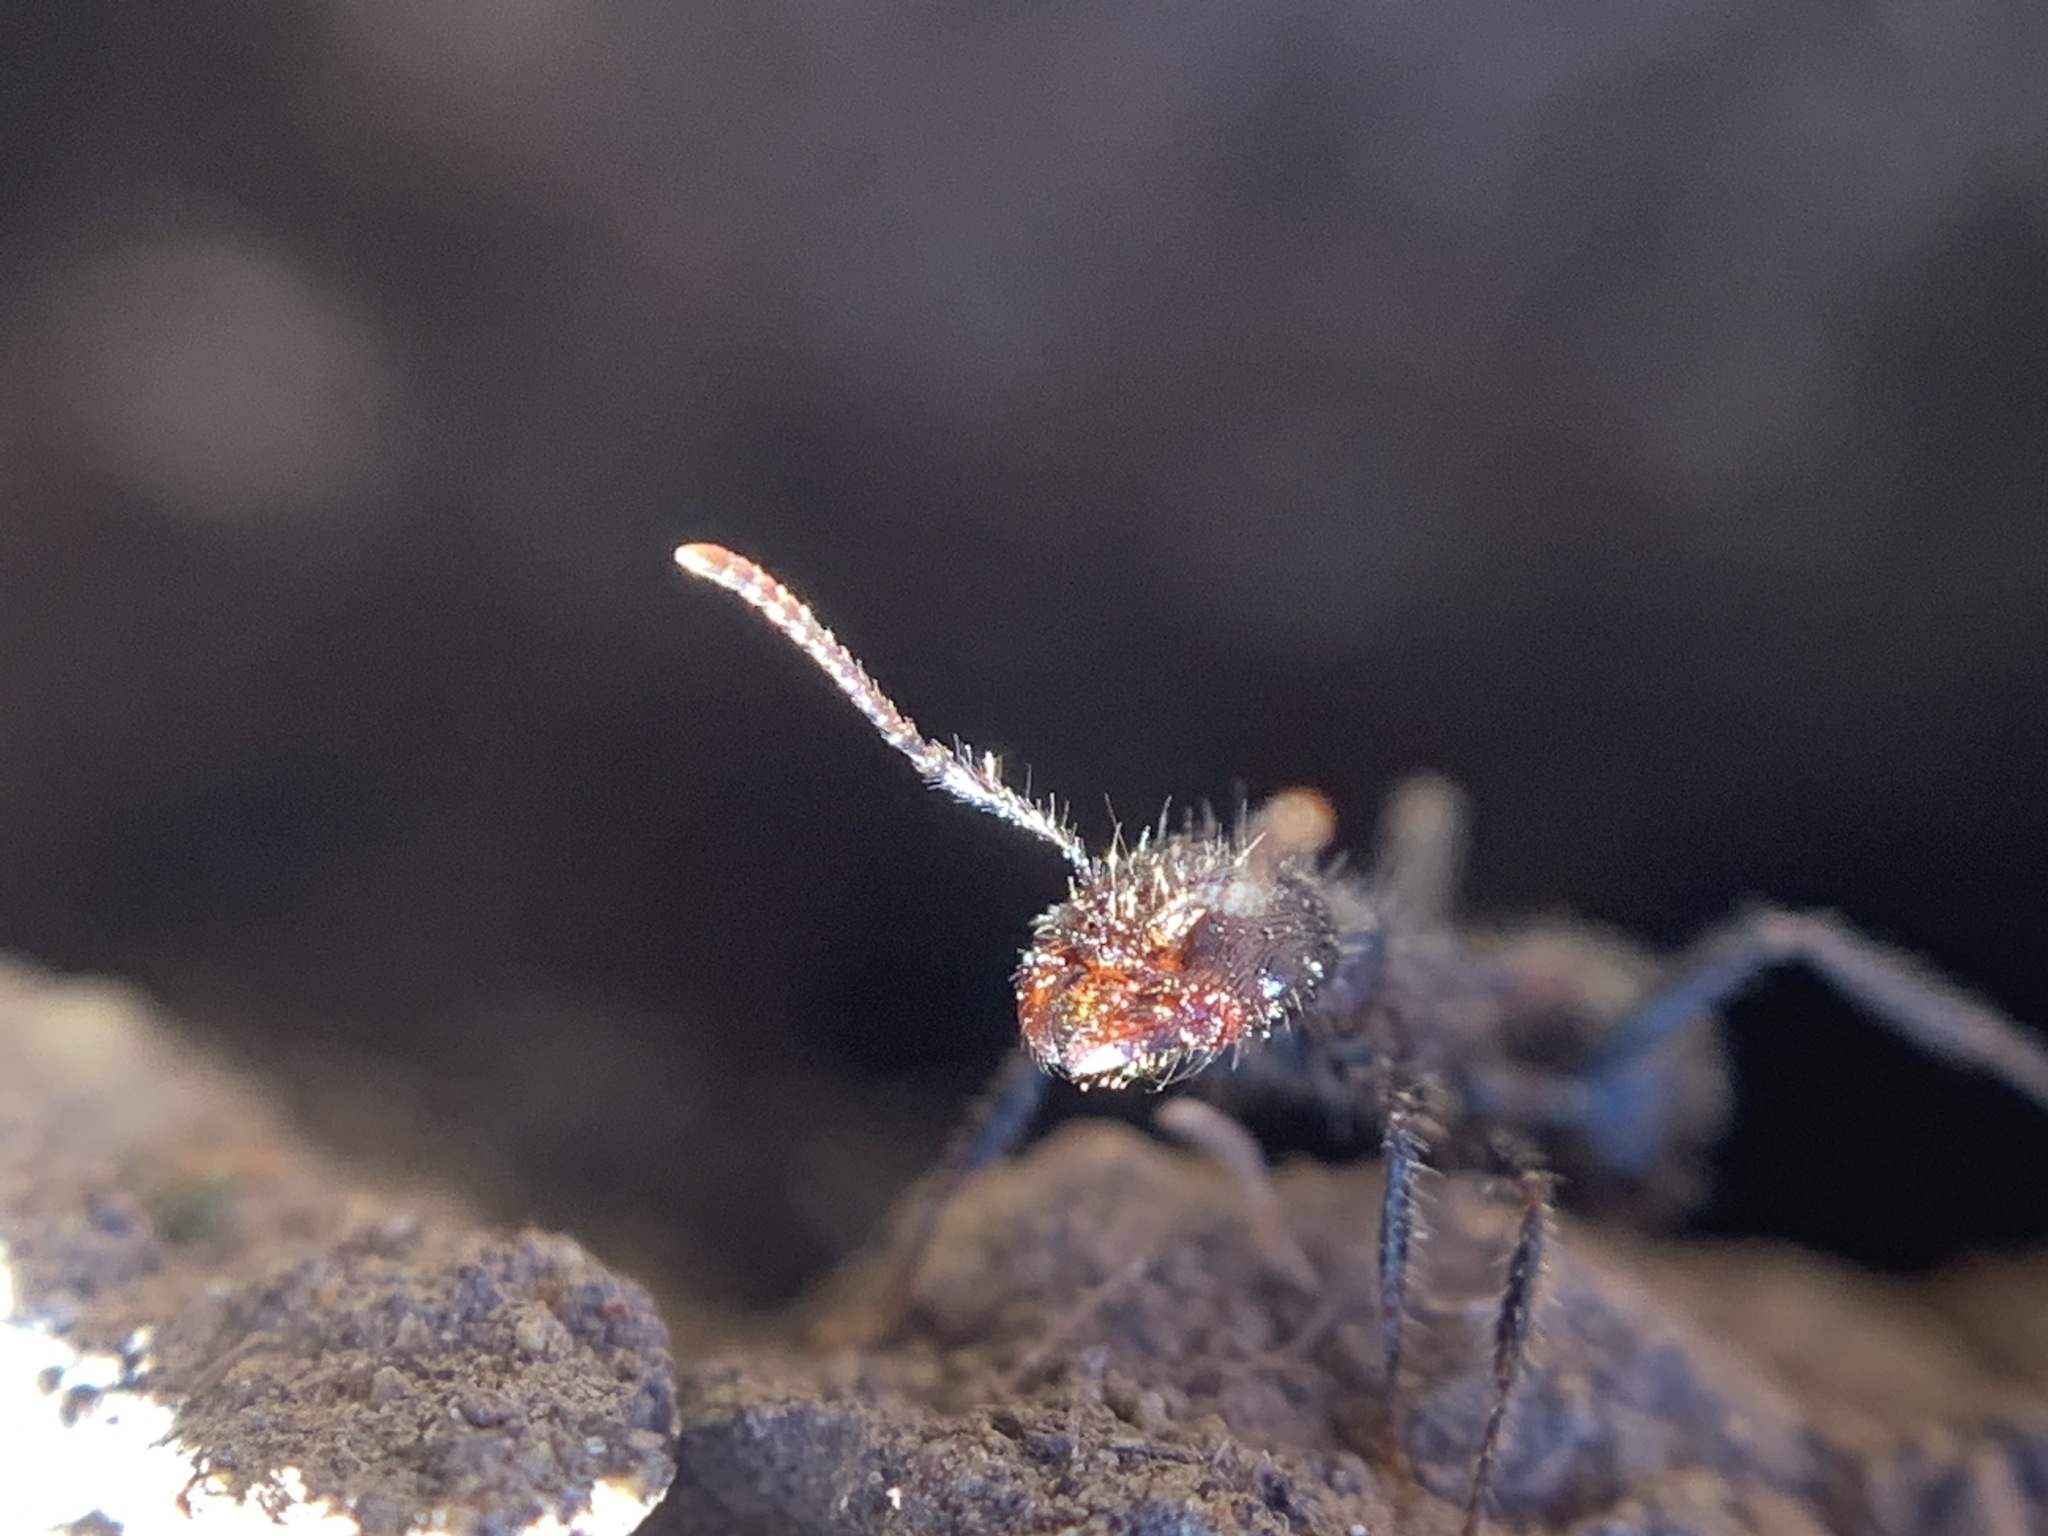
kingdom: Animalia
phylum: Arthropoda
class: Insecta
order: Hymenoptera
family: Formicidae
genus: Veromessor
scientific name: Veromessor andrei
